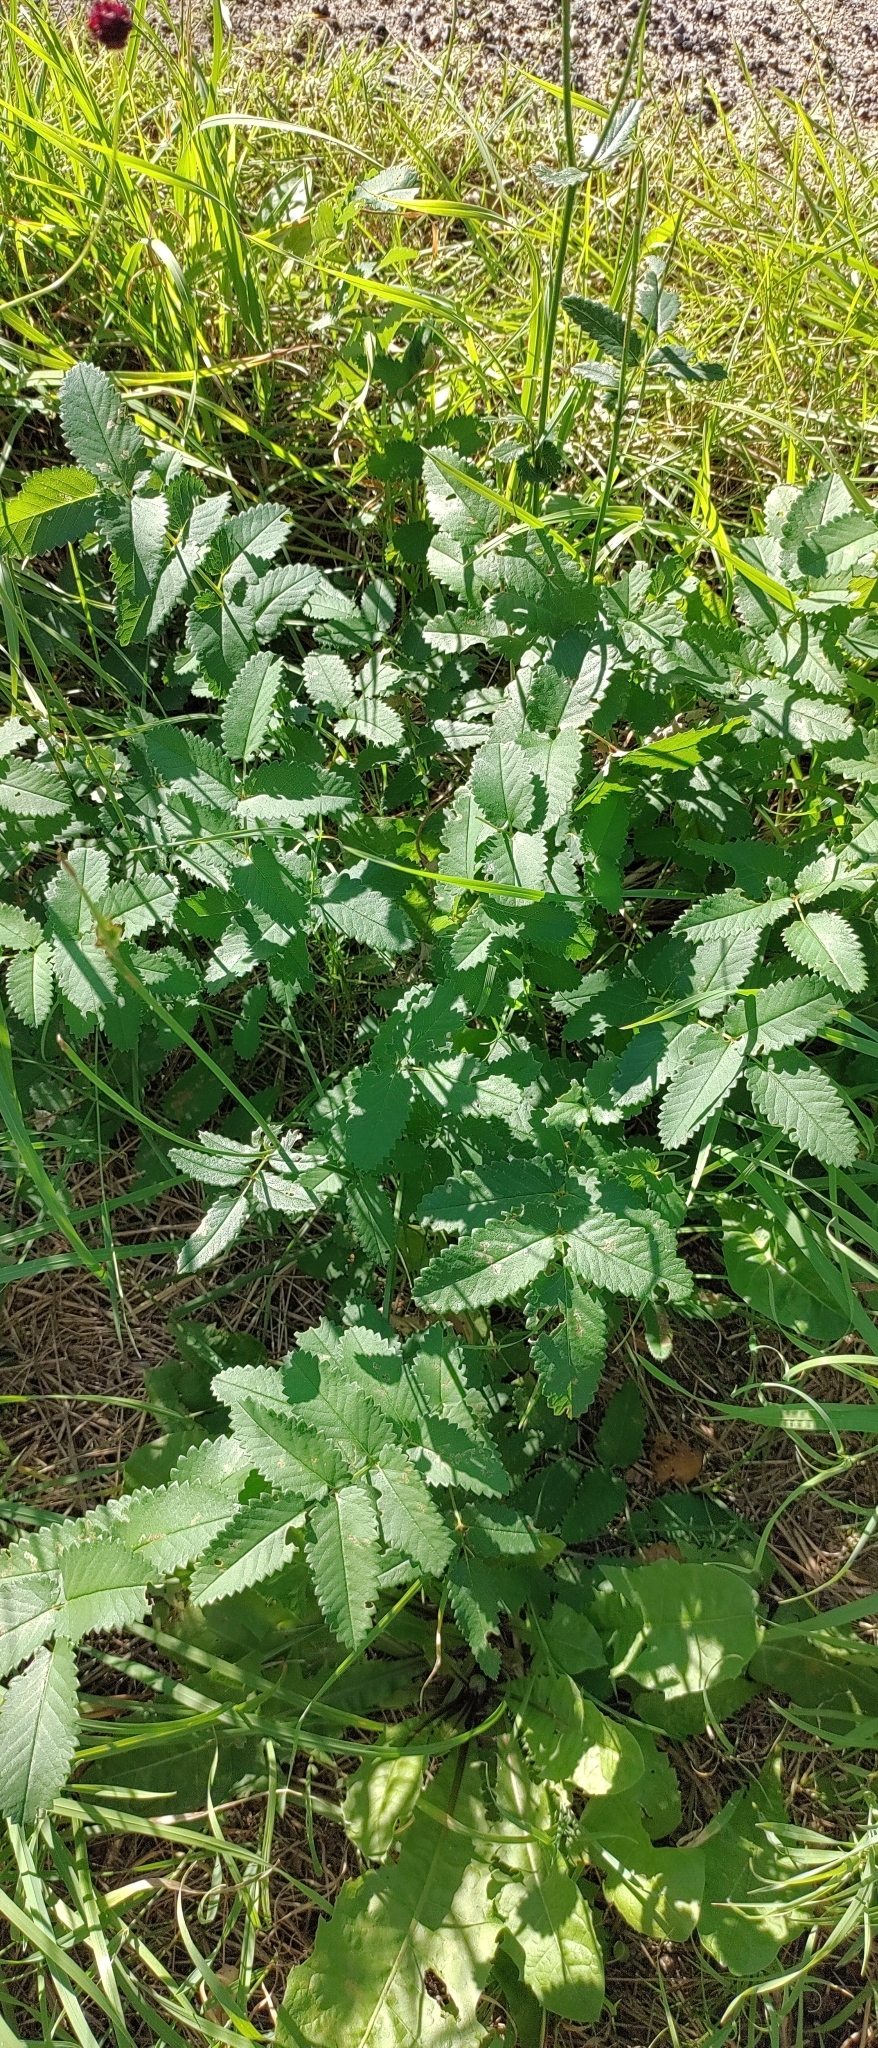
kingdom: Plantae
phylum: Tracheophyta
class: Magnoliopsida
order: Rosales
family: Rosaceae
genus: Sanguisorba
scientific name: Sanguisorba officinalis
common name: Great burnet
